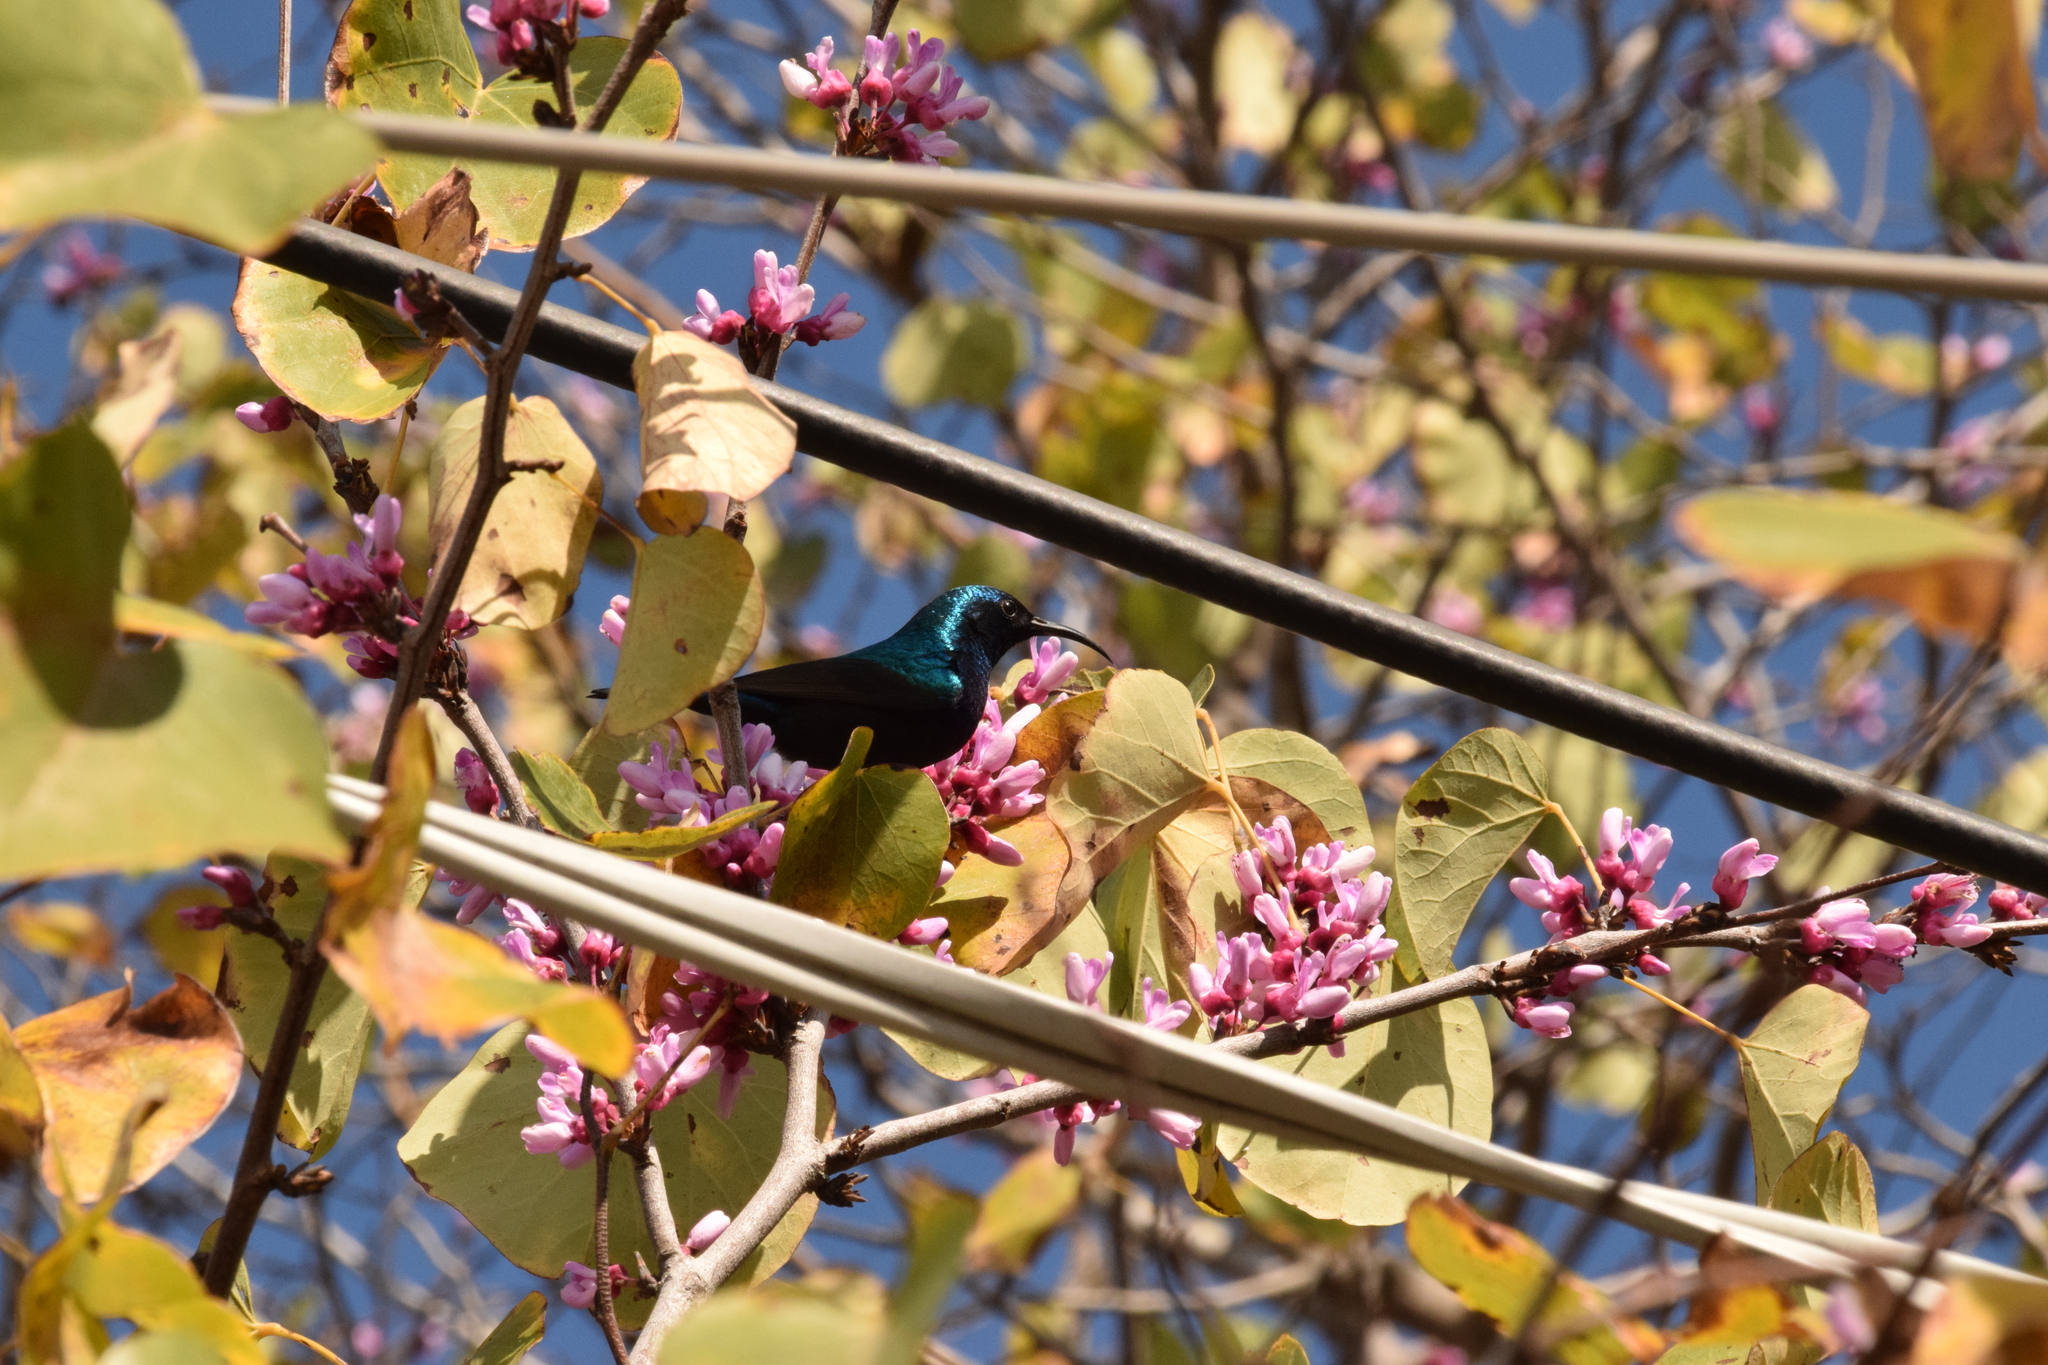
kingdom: Animalia
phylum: Chordata
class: Aves
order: Passeriformes
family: Nectariniidae
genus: Cinnyris
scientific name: Cinnyris osea
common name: Palestine sunbird
